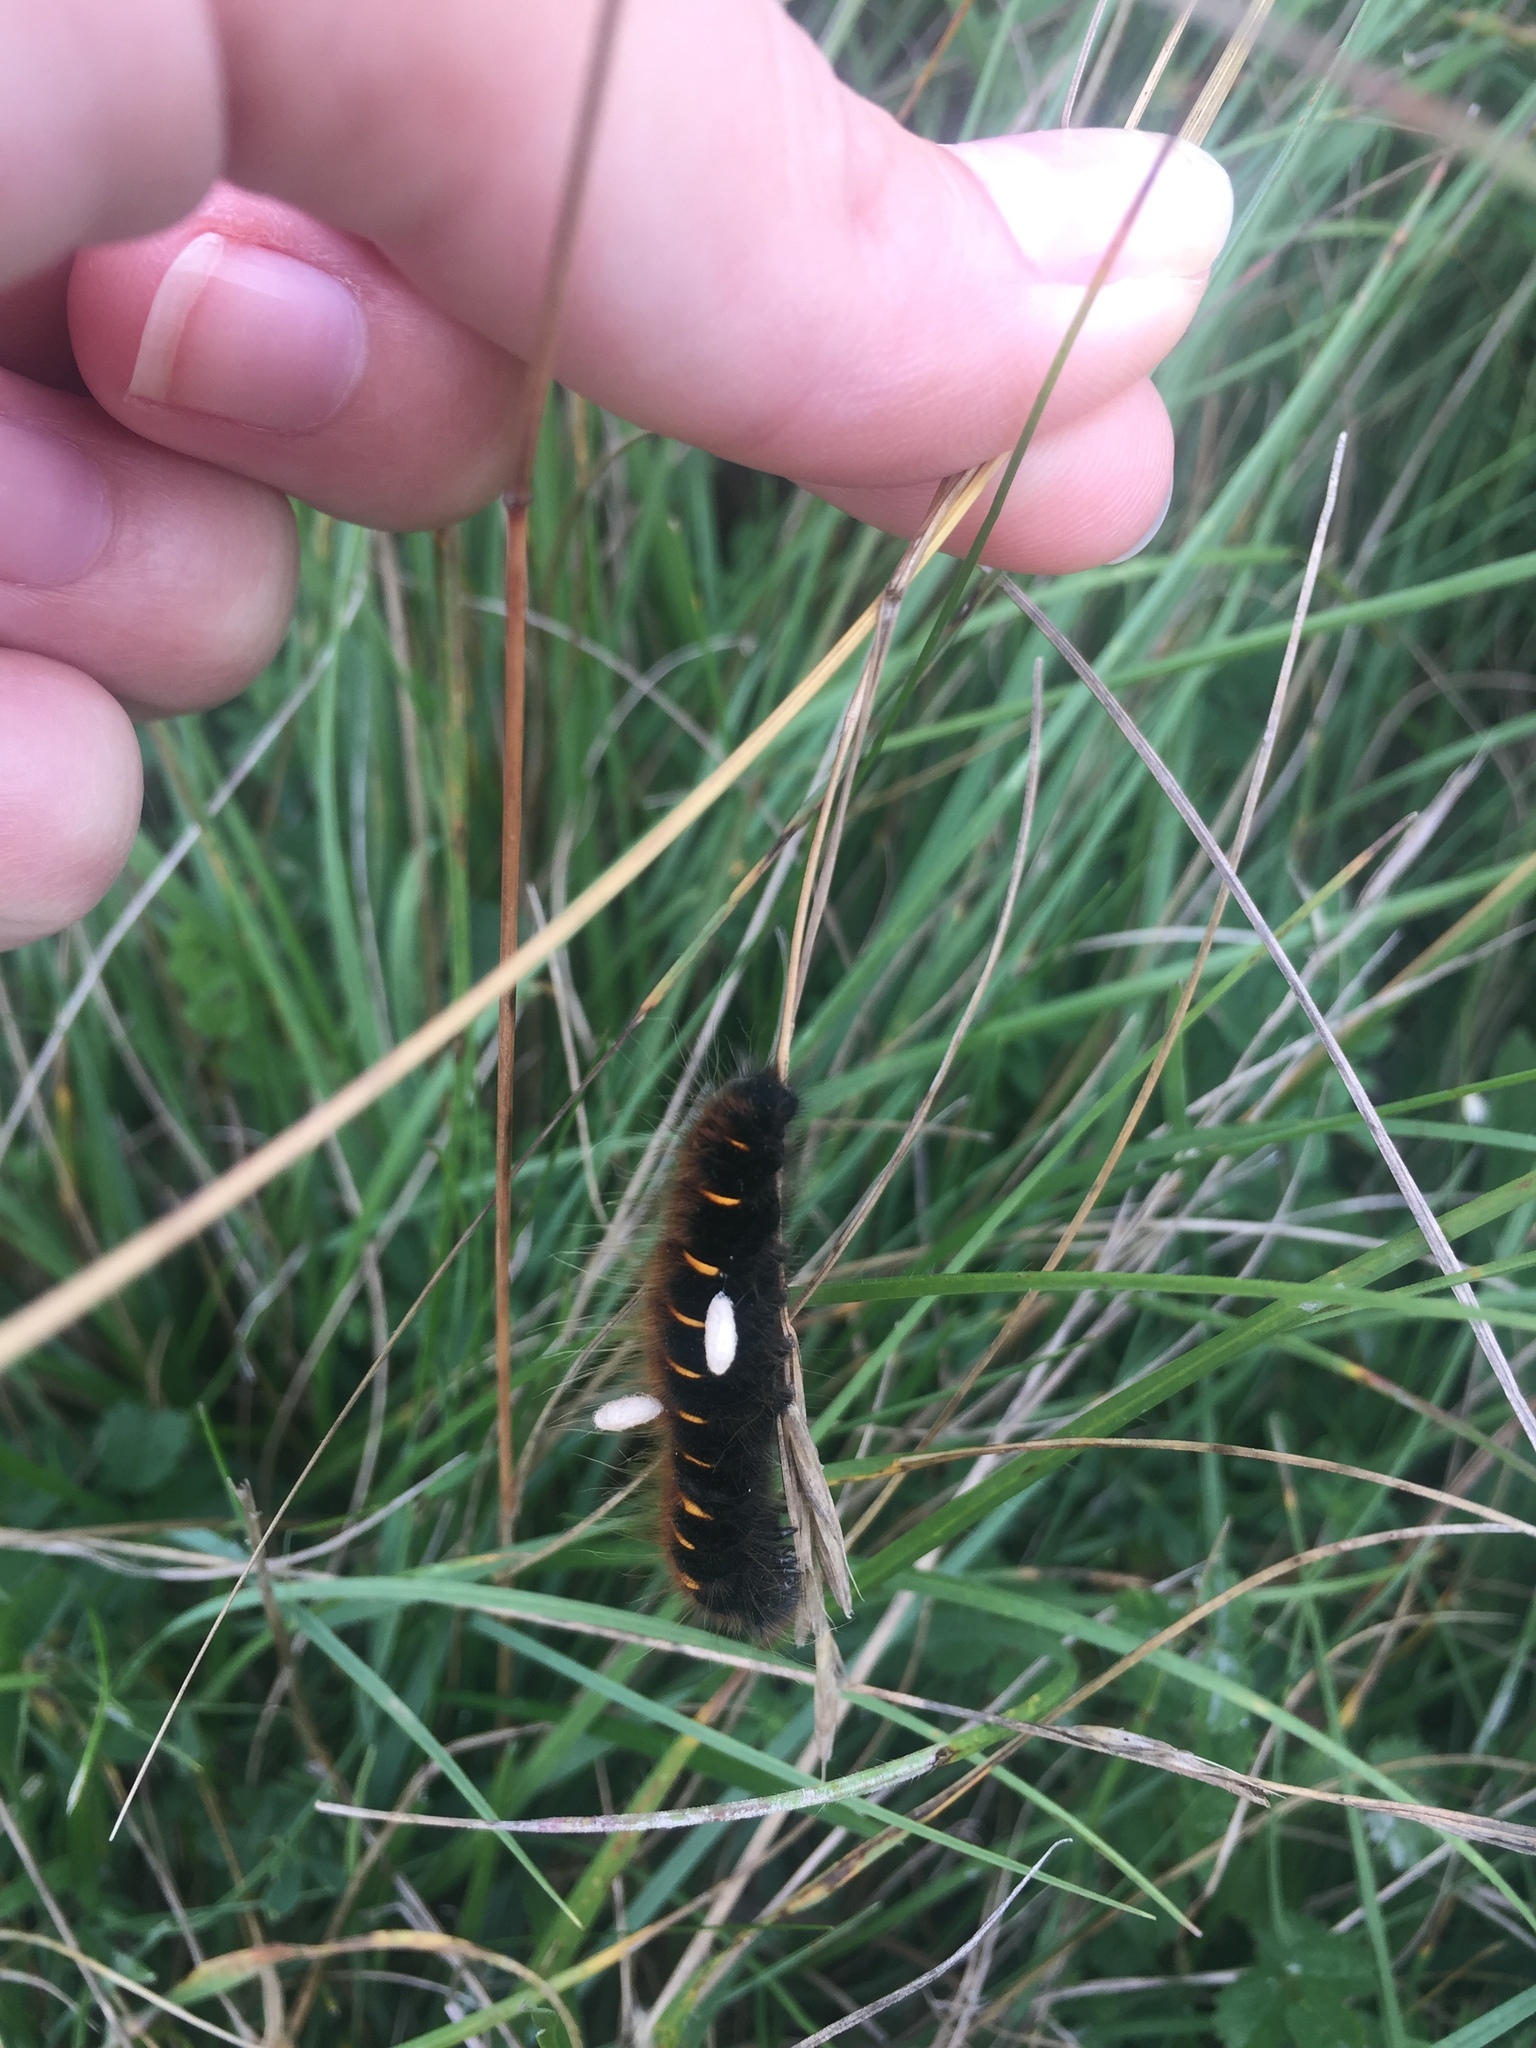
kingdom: Animalia
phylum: Arthropoda
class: Insecta
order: Lepidoptera
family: Lasiocampidae
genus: Macrothylacia
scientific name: Macrothylacia rubi
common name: Fox moth
